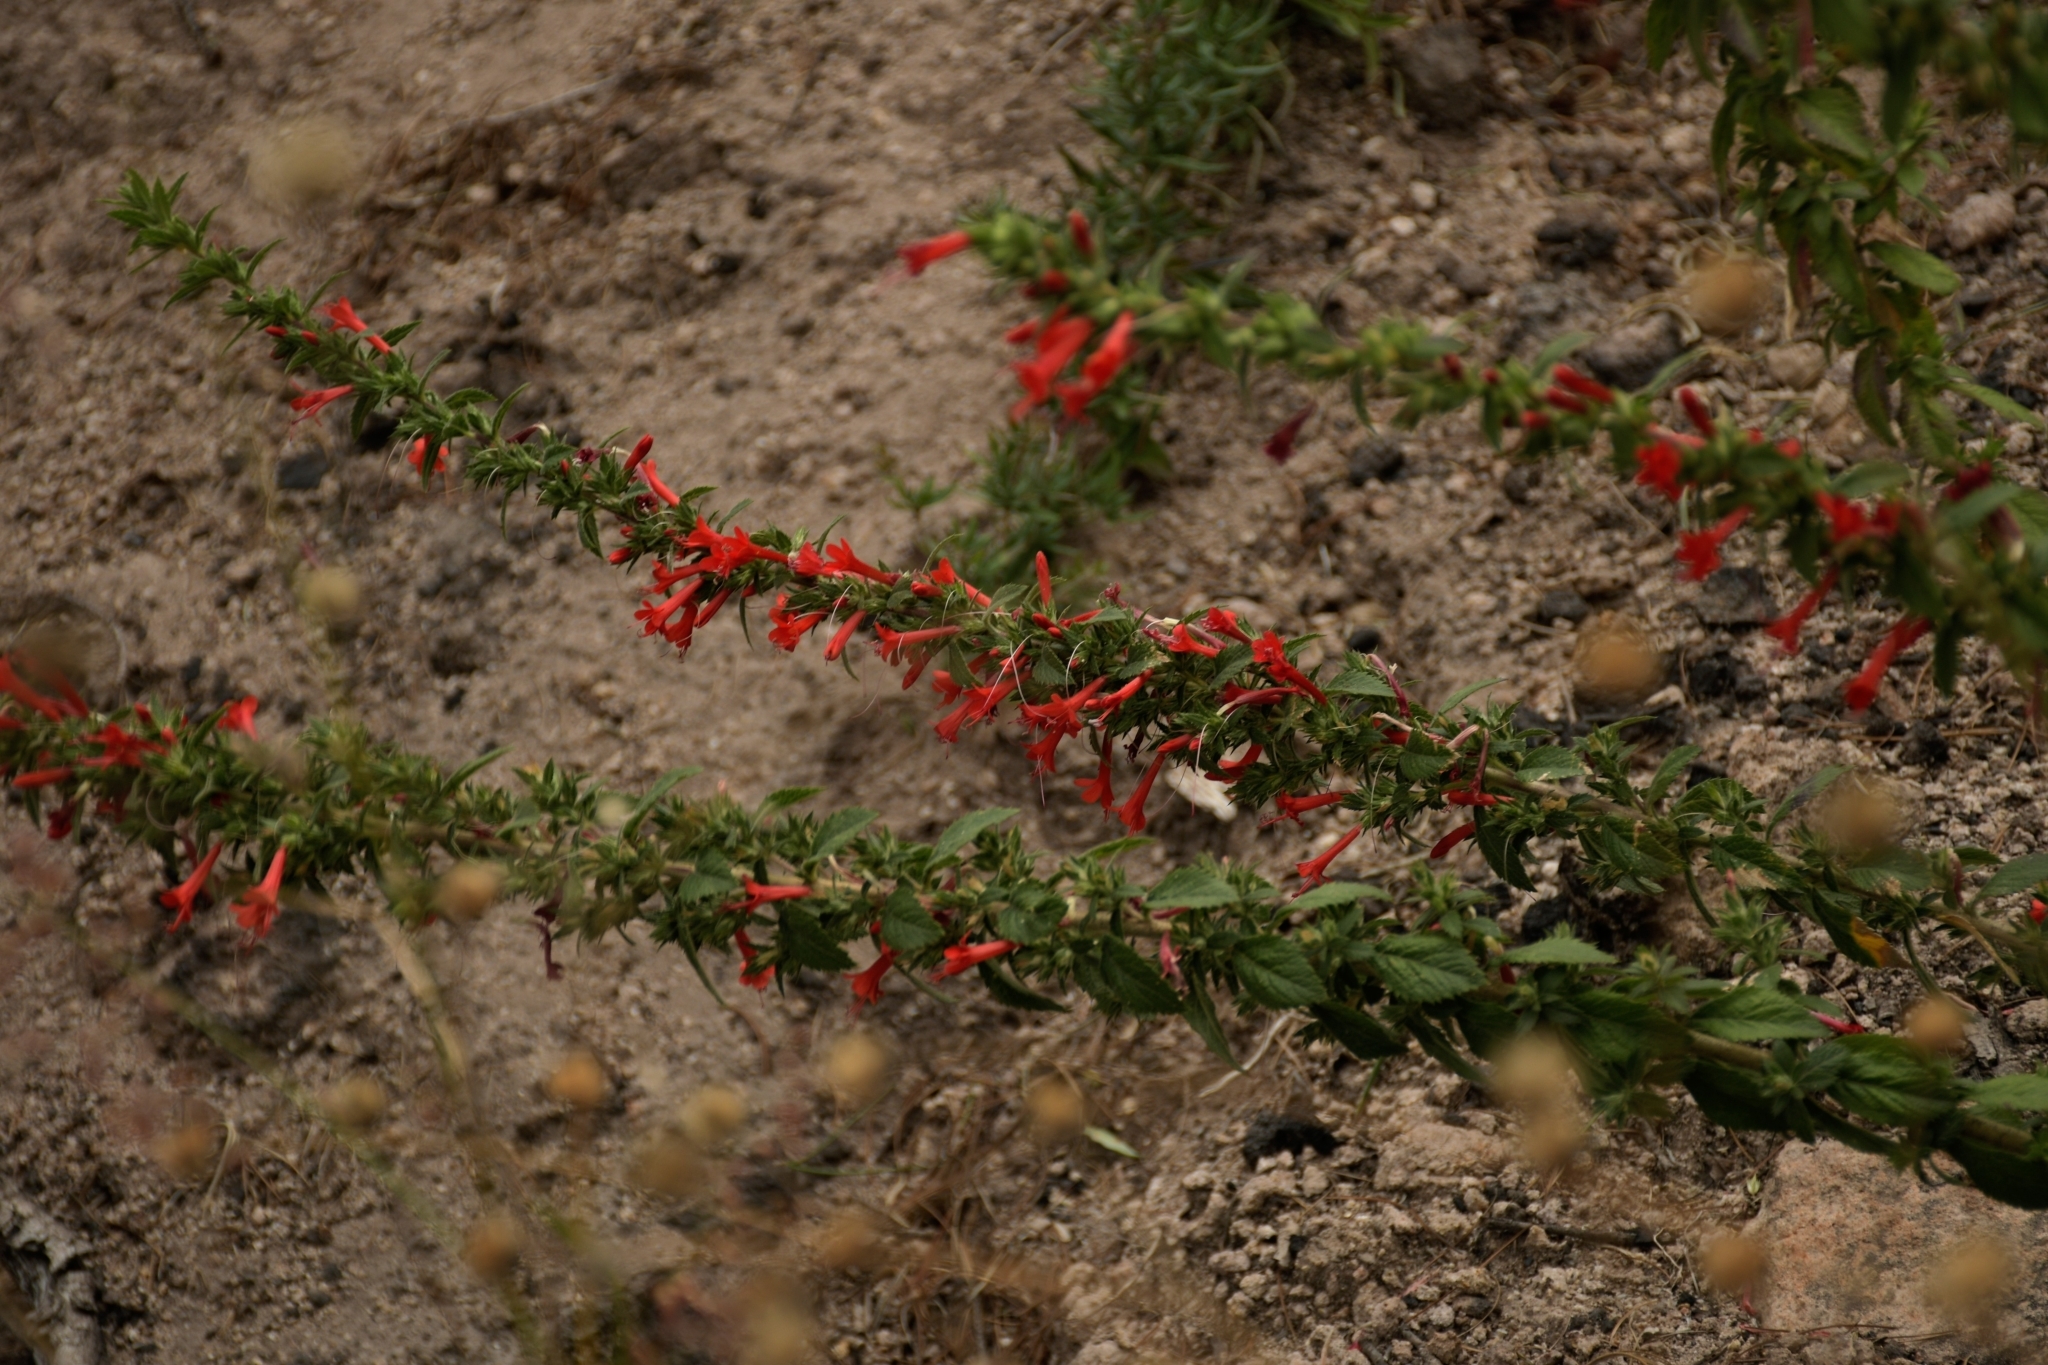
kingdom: Plantae
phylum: Tracheophyta
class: Magnoliopsida
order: Ericales
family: Polemoniaceae
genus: Loeselia
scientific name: Loeselia mexicana
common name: Mexican false calico
